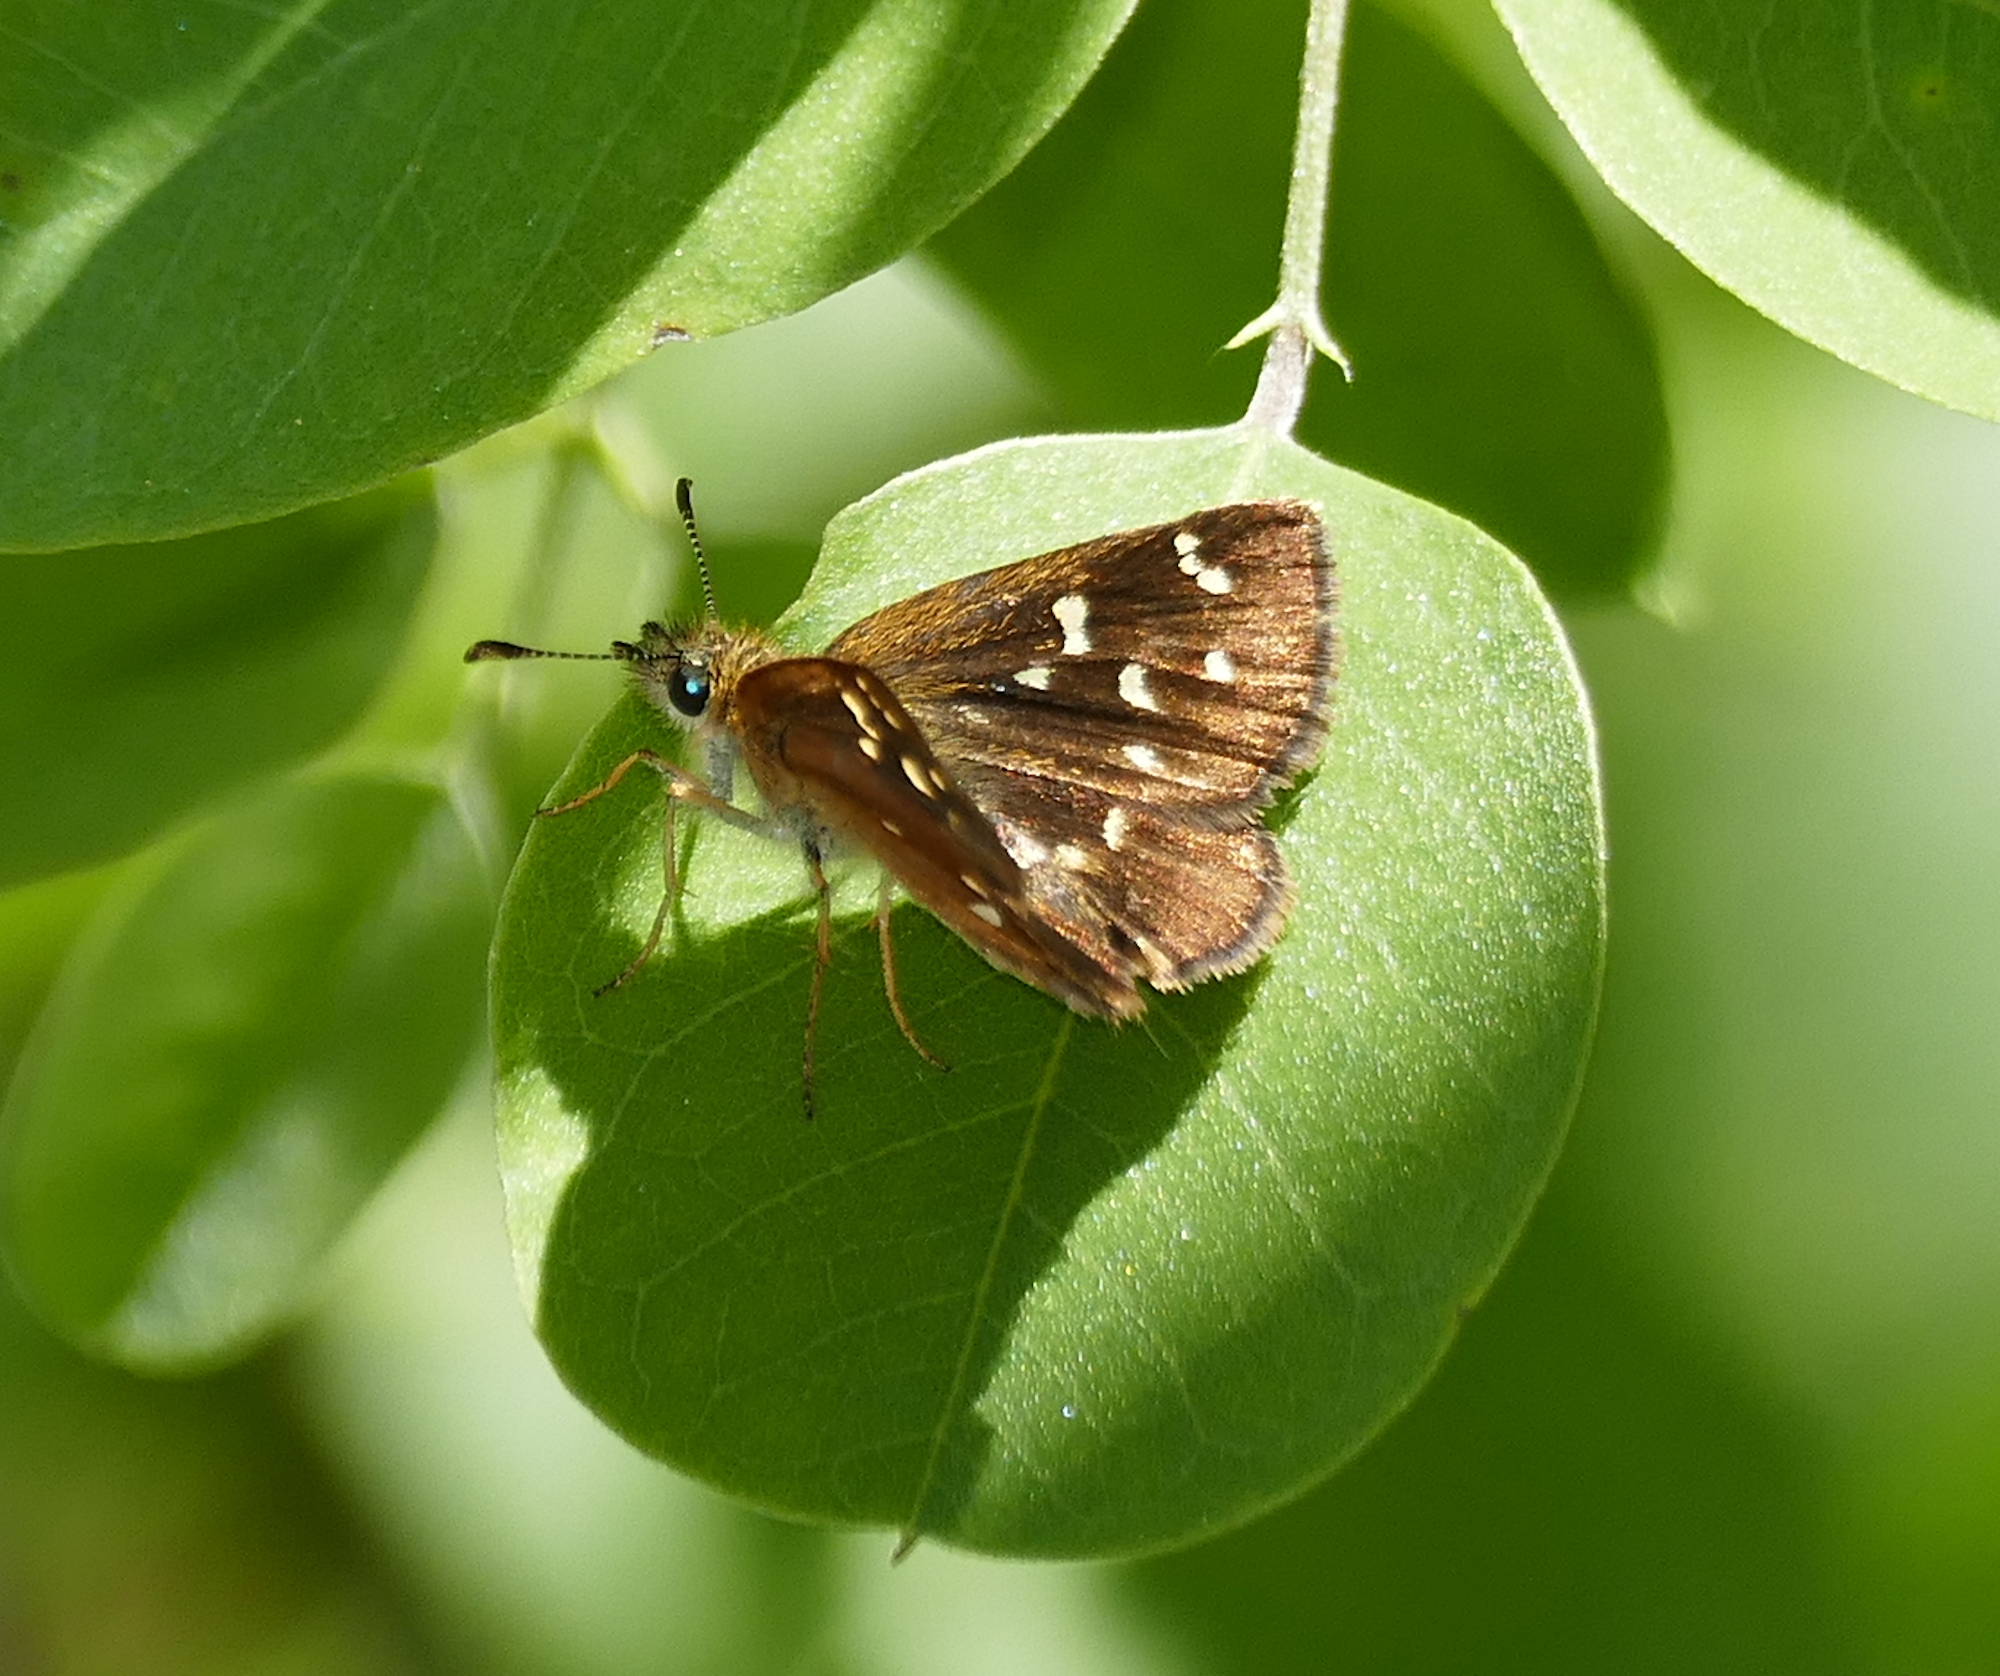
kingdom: Animalia
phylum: Arthropoda
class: Insecta
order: Lepidoptera
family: Hesperiidae
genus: Piruna
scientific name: Piruna polingii
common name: Four-spotted skipperling
